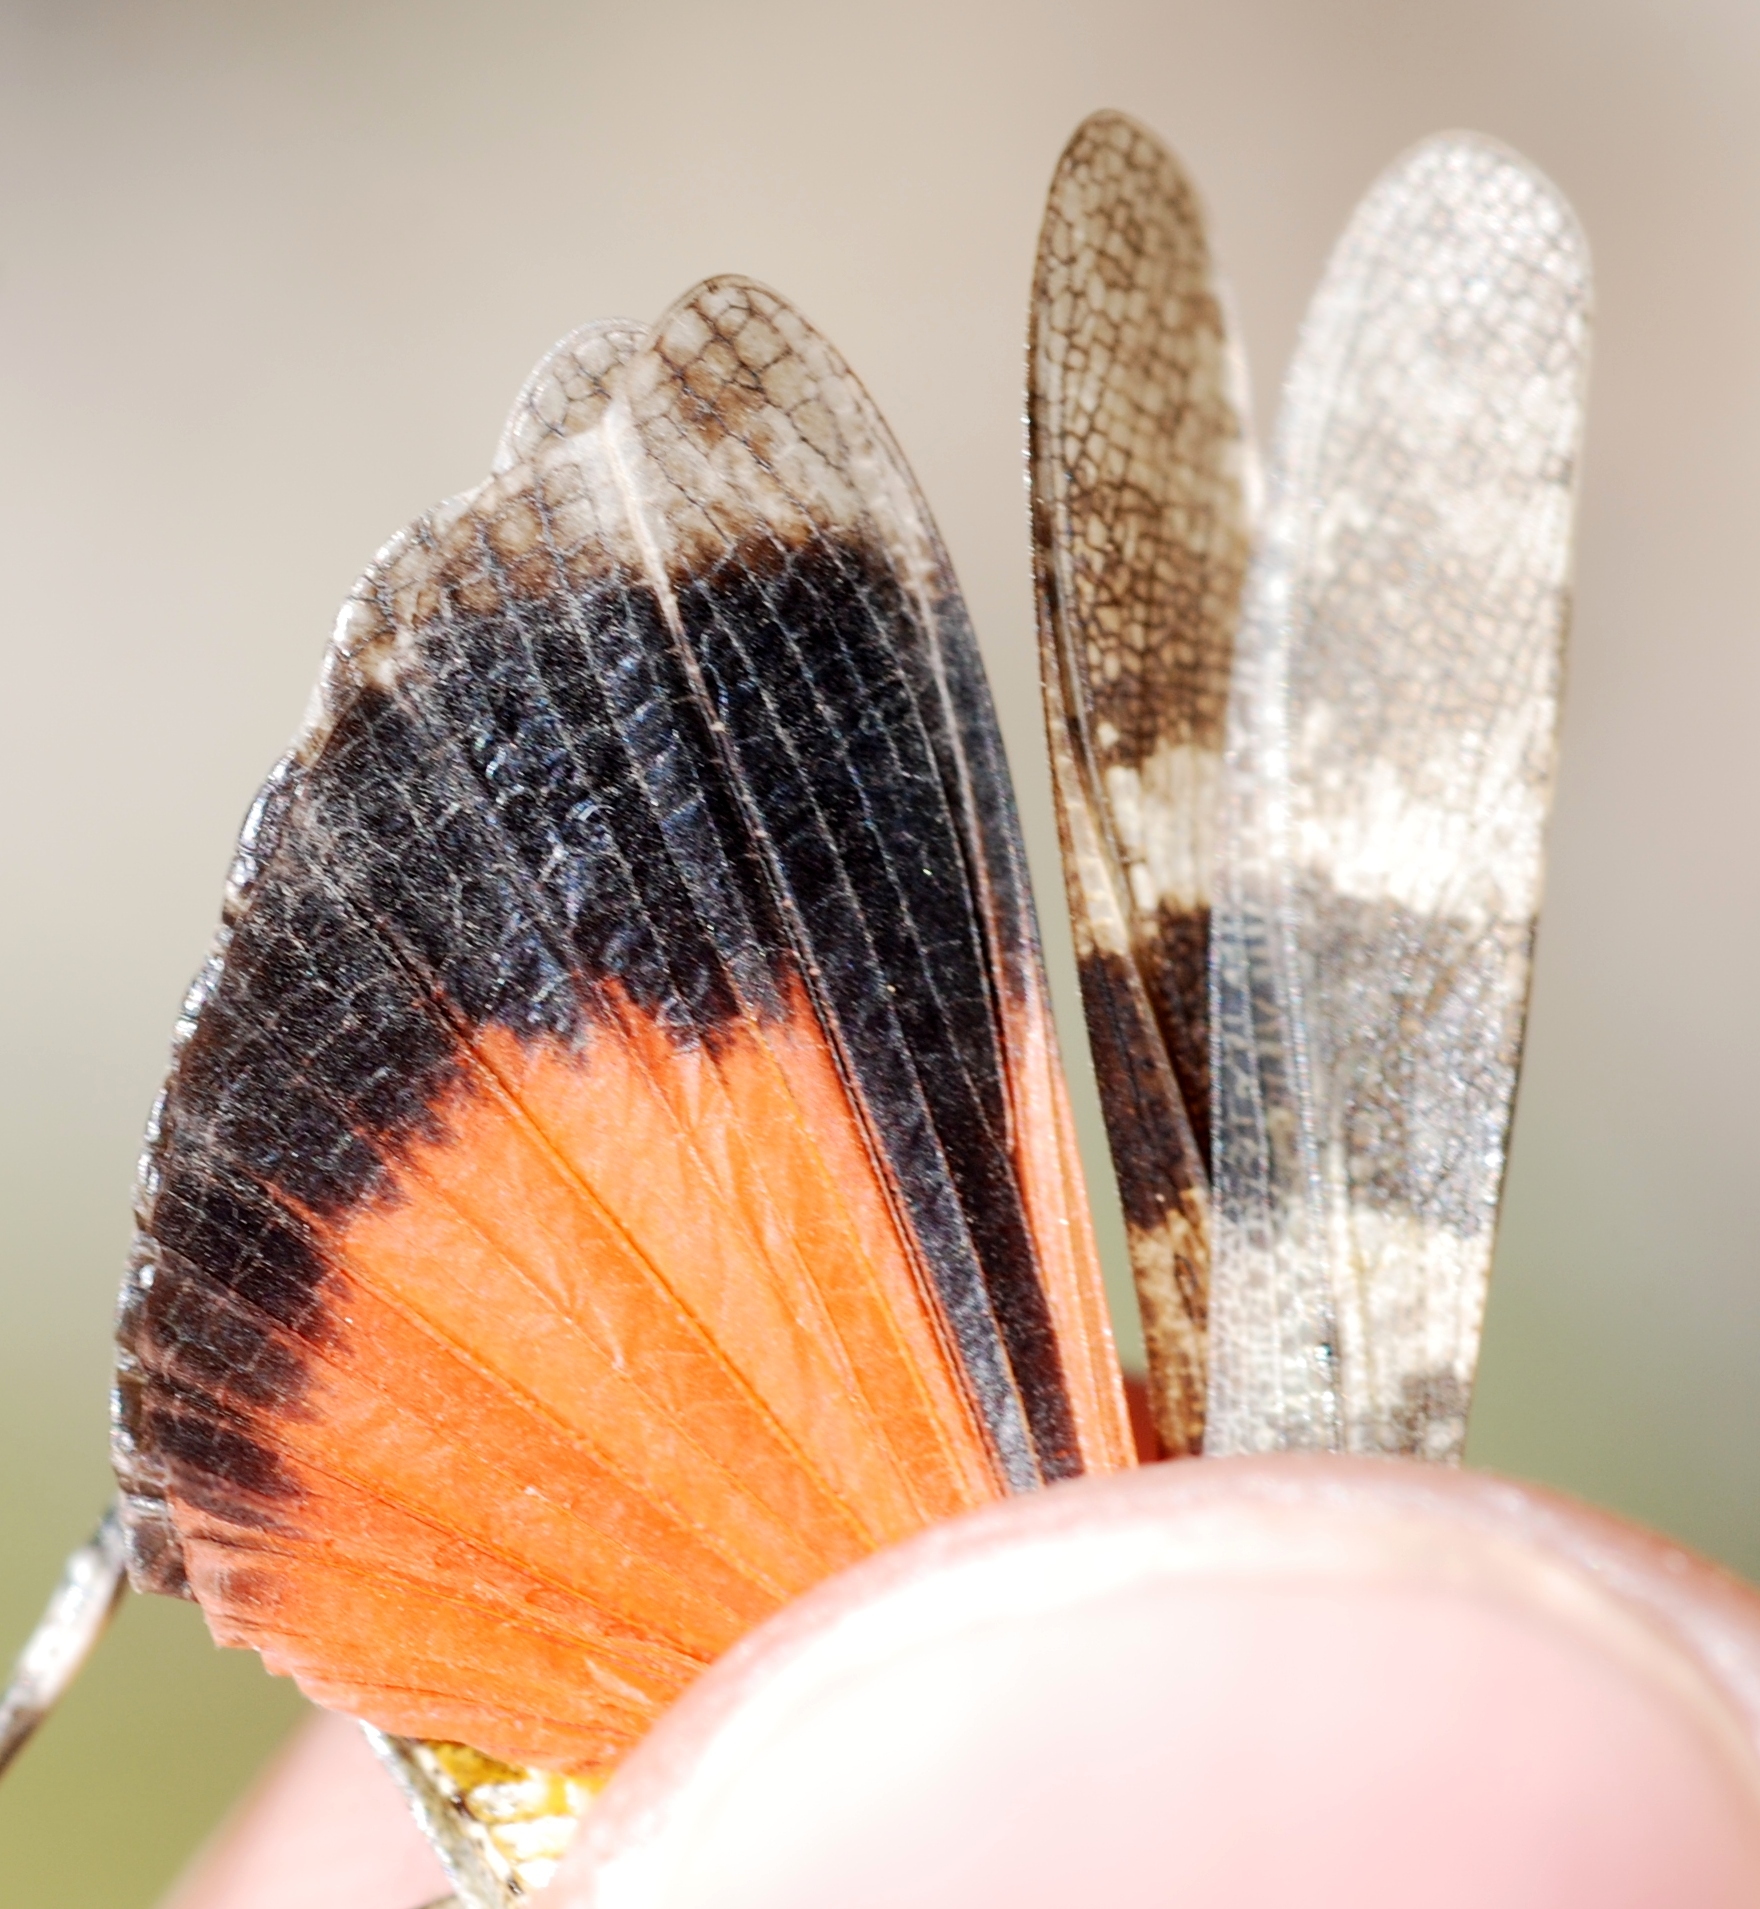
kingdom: Animalia
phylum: Arthropoda
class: Insecta
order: Orthoptera
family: Acrididae
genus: Oedipoda
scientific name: Oedipoda germanica
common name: Red band-winged grasshopper
